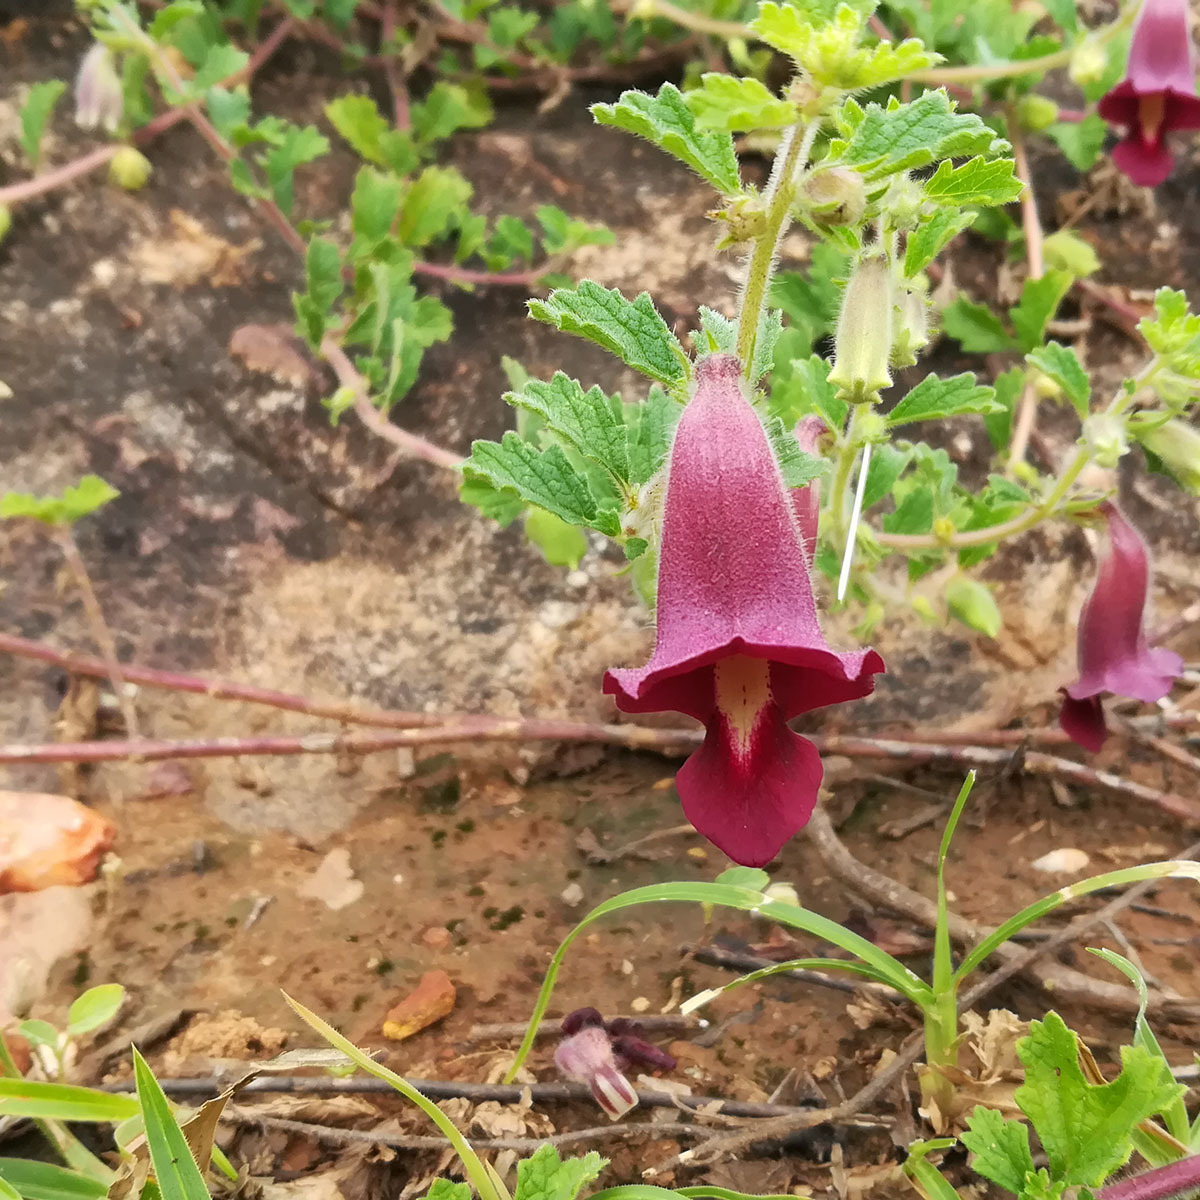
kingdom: Plantae
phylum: Tracheophyta
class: Magnoliopsida
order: Lamiales
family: Pedaliaceae
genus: Sesamum
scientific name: Sesamum prostratum
